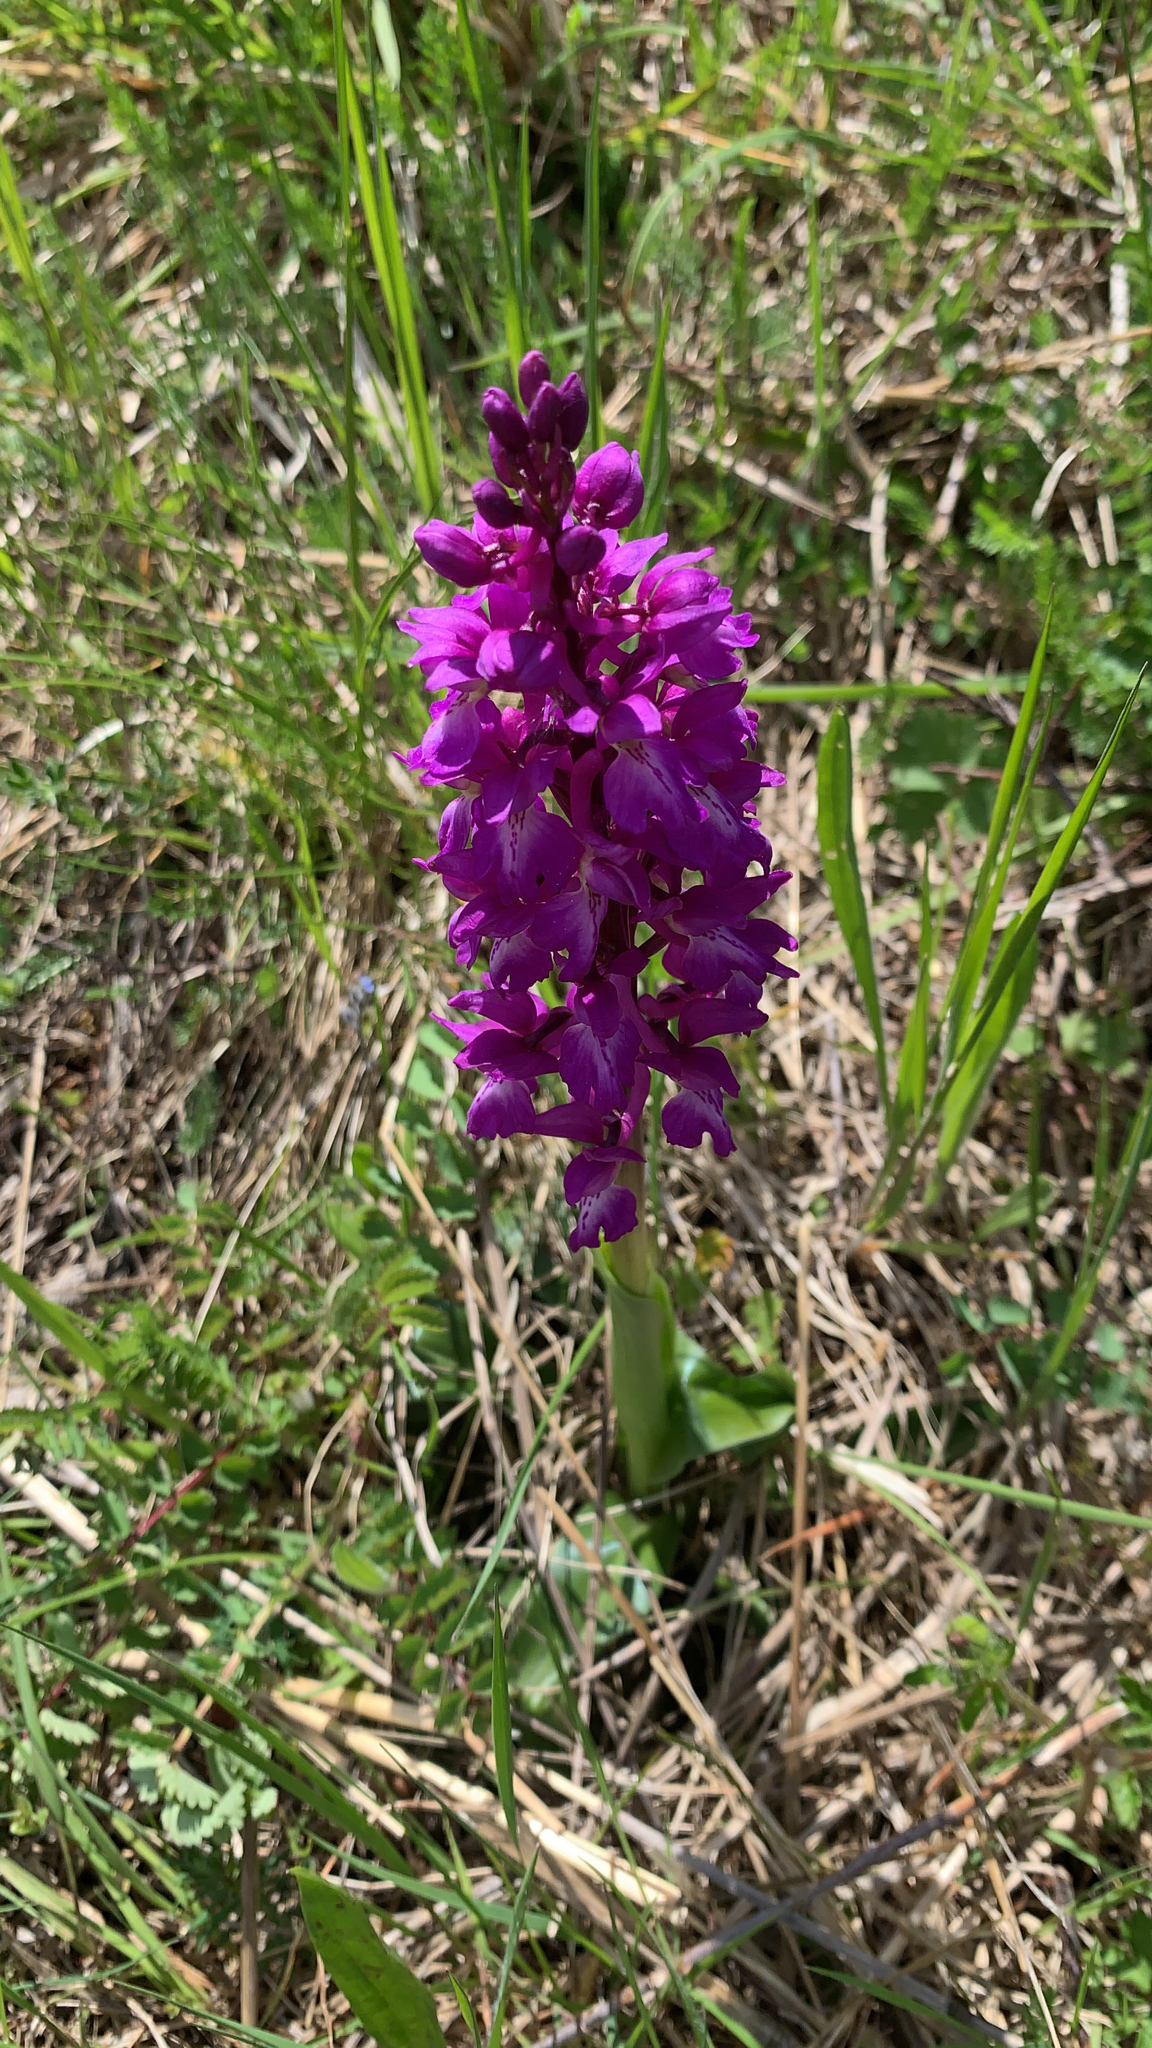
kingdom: Plantae
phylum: Tracheophyta
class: Liliopsida
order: Asparagales
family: Orchidaceae
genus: Orchis
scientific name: Orchis mascula
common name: Early-purple orchid
